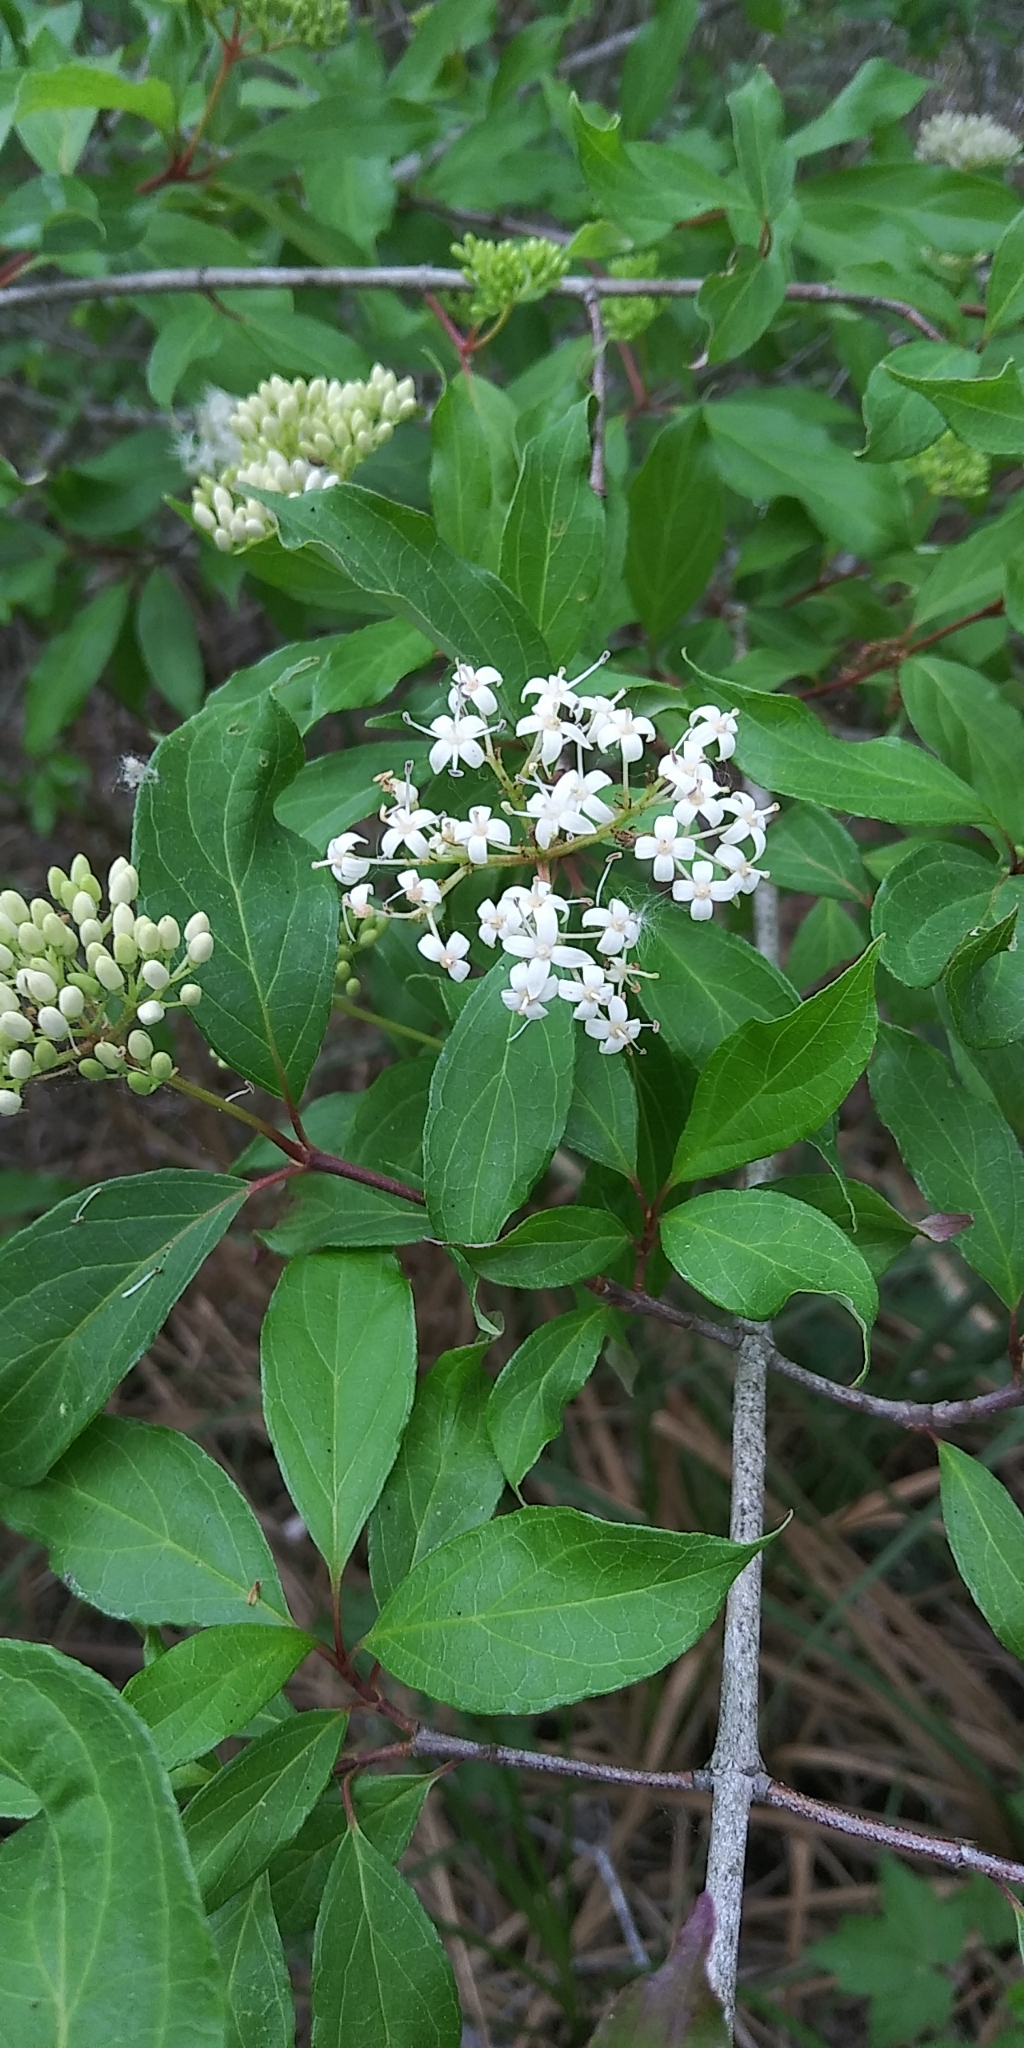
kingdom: Plantae
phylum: Tracheophyta
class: Magnoliopsida
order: Cornales
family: Cornaceae
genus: Cornus
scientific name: Cornus foemina
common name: Swamp dogwood
